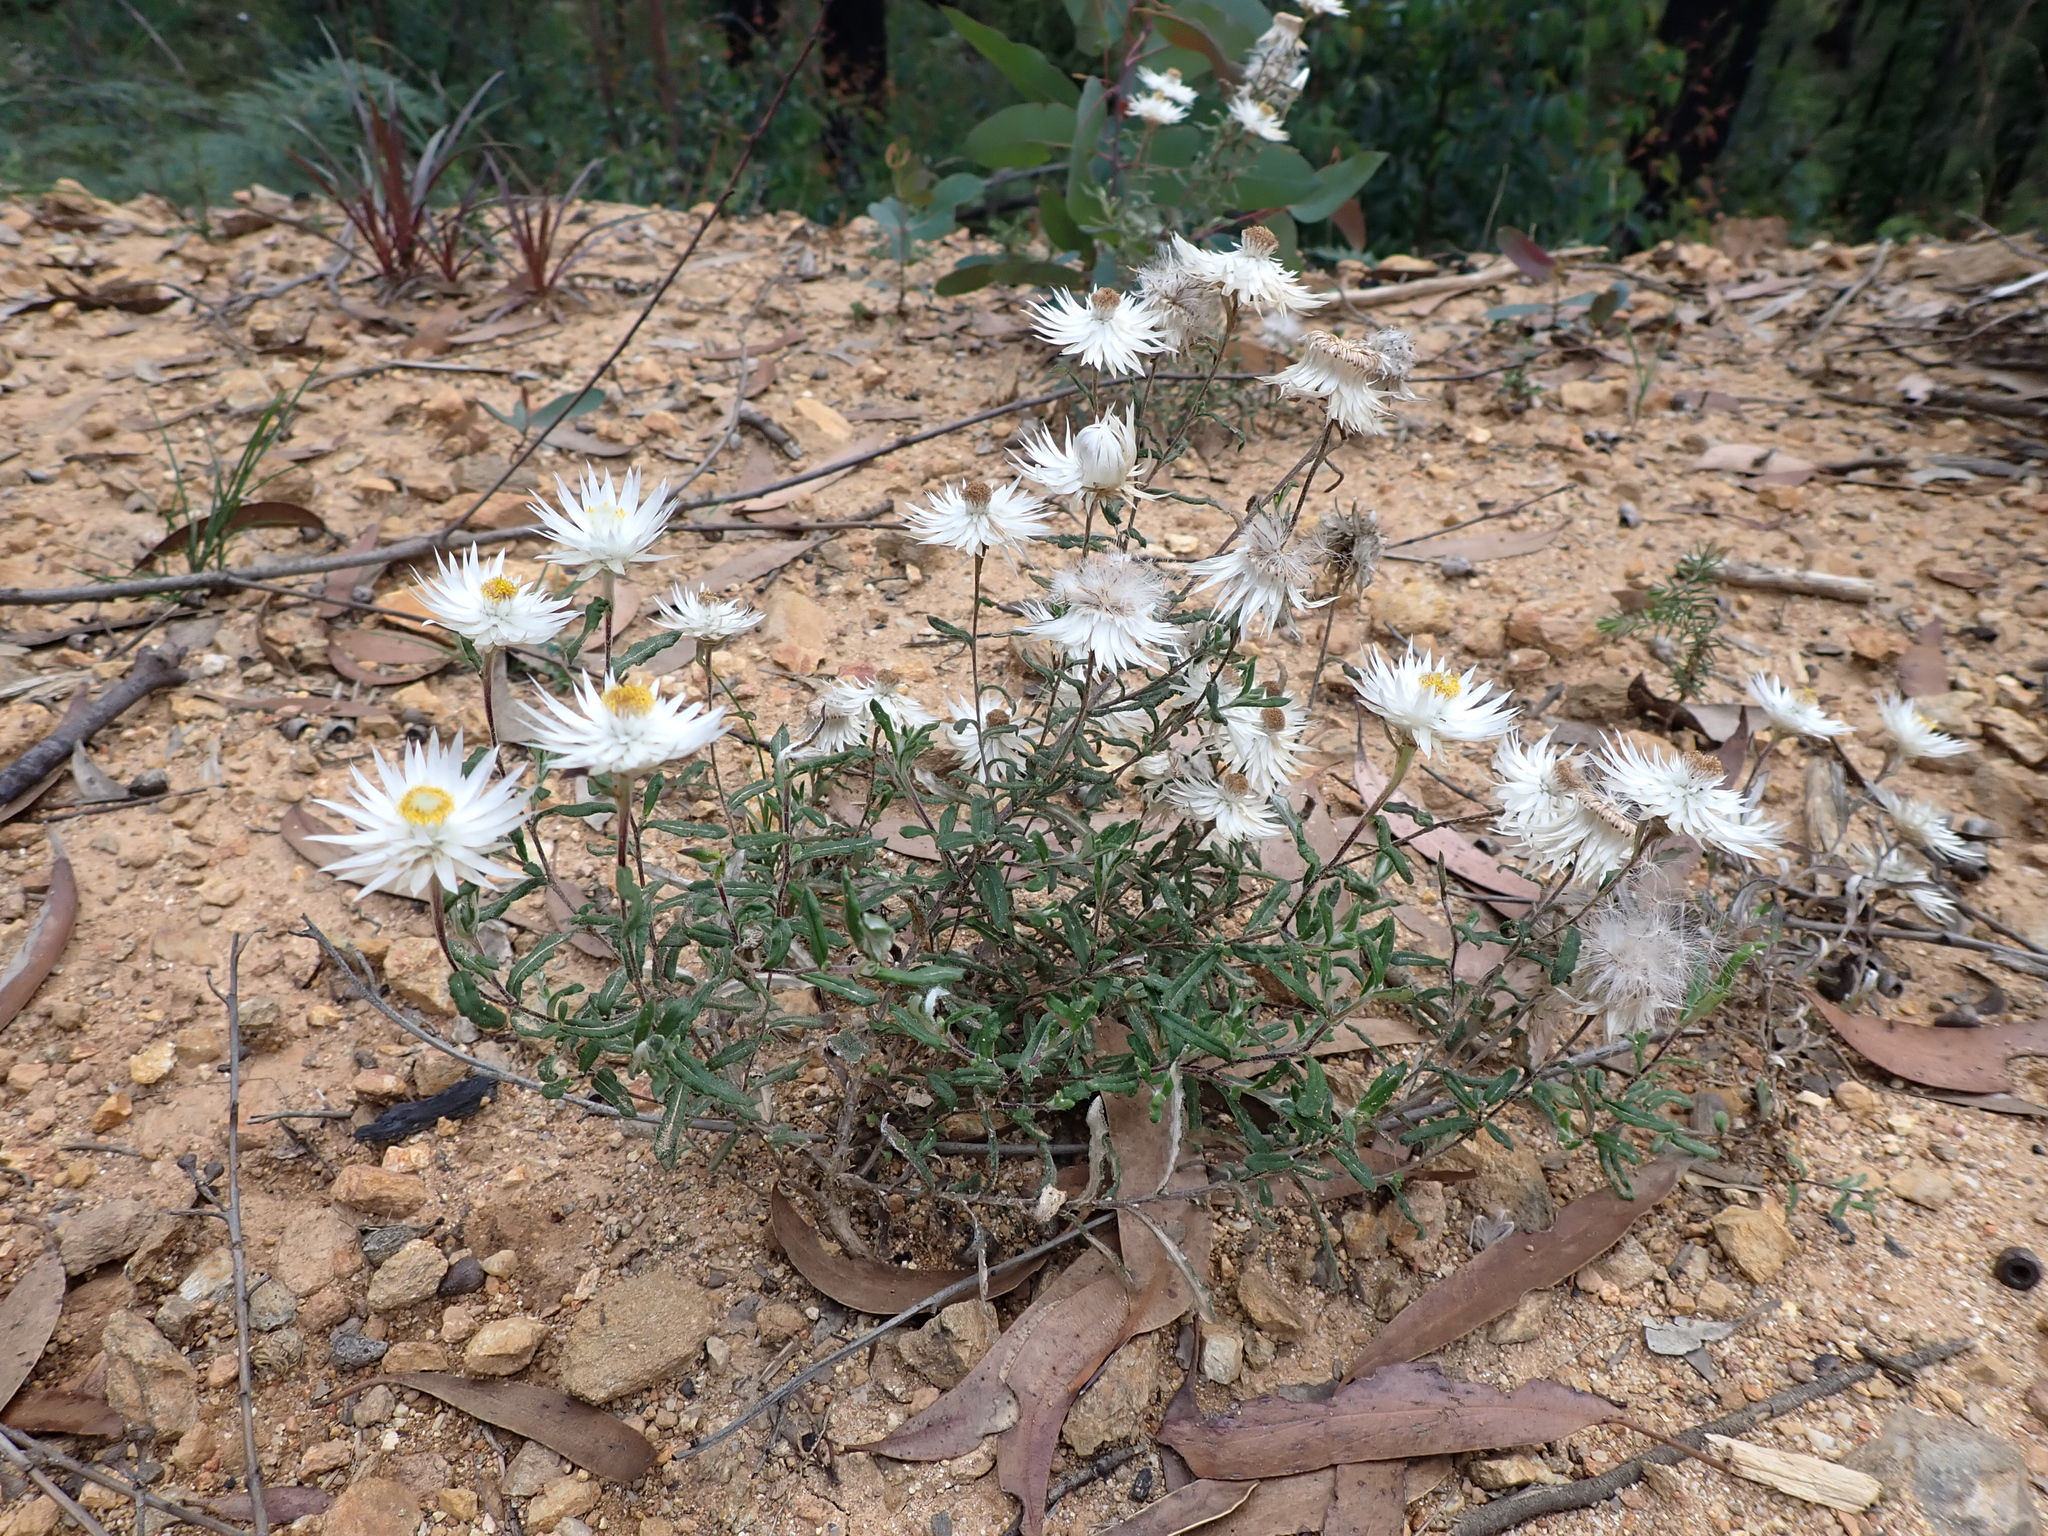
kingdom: Plantae
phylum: Tracheophyta
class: Magnoliopsida
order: Asterales
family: Asteraceae
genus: Helichrysum
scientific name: Helichrysum leucopsideum
